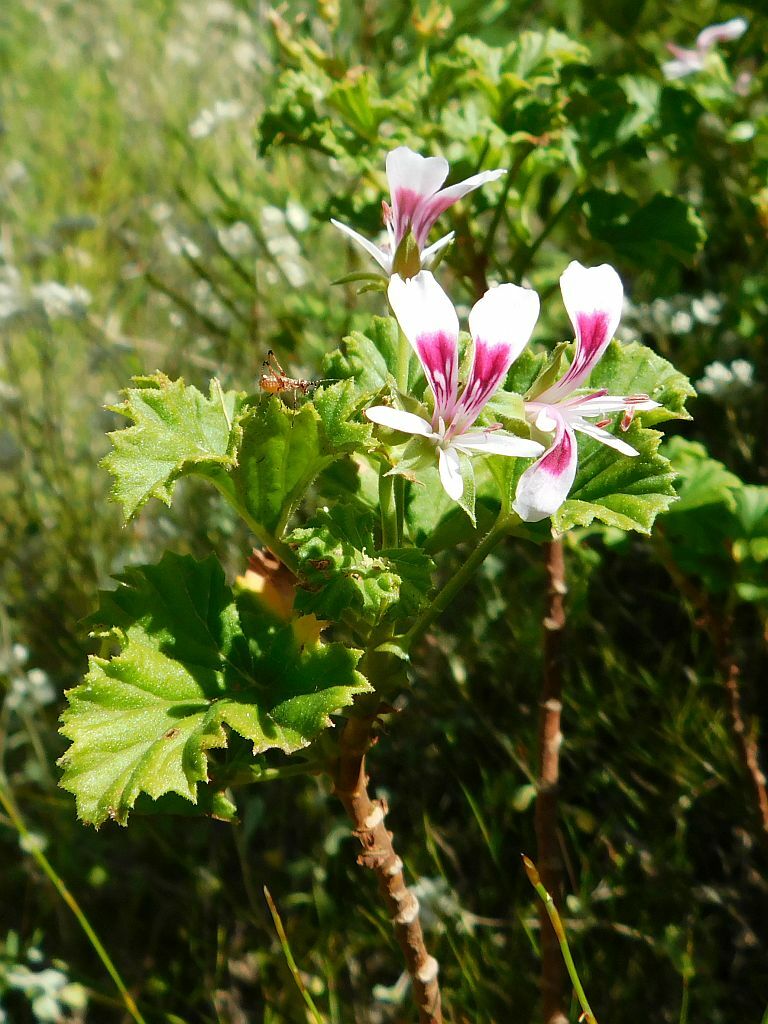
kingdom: Plantae
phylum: Tracheophyta
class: Magnoliopsida
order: Geraniales
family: Geraniaceae
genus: Pelargonium
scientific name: Pelargonium greytonense
